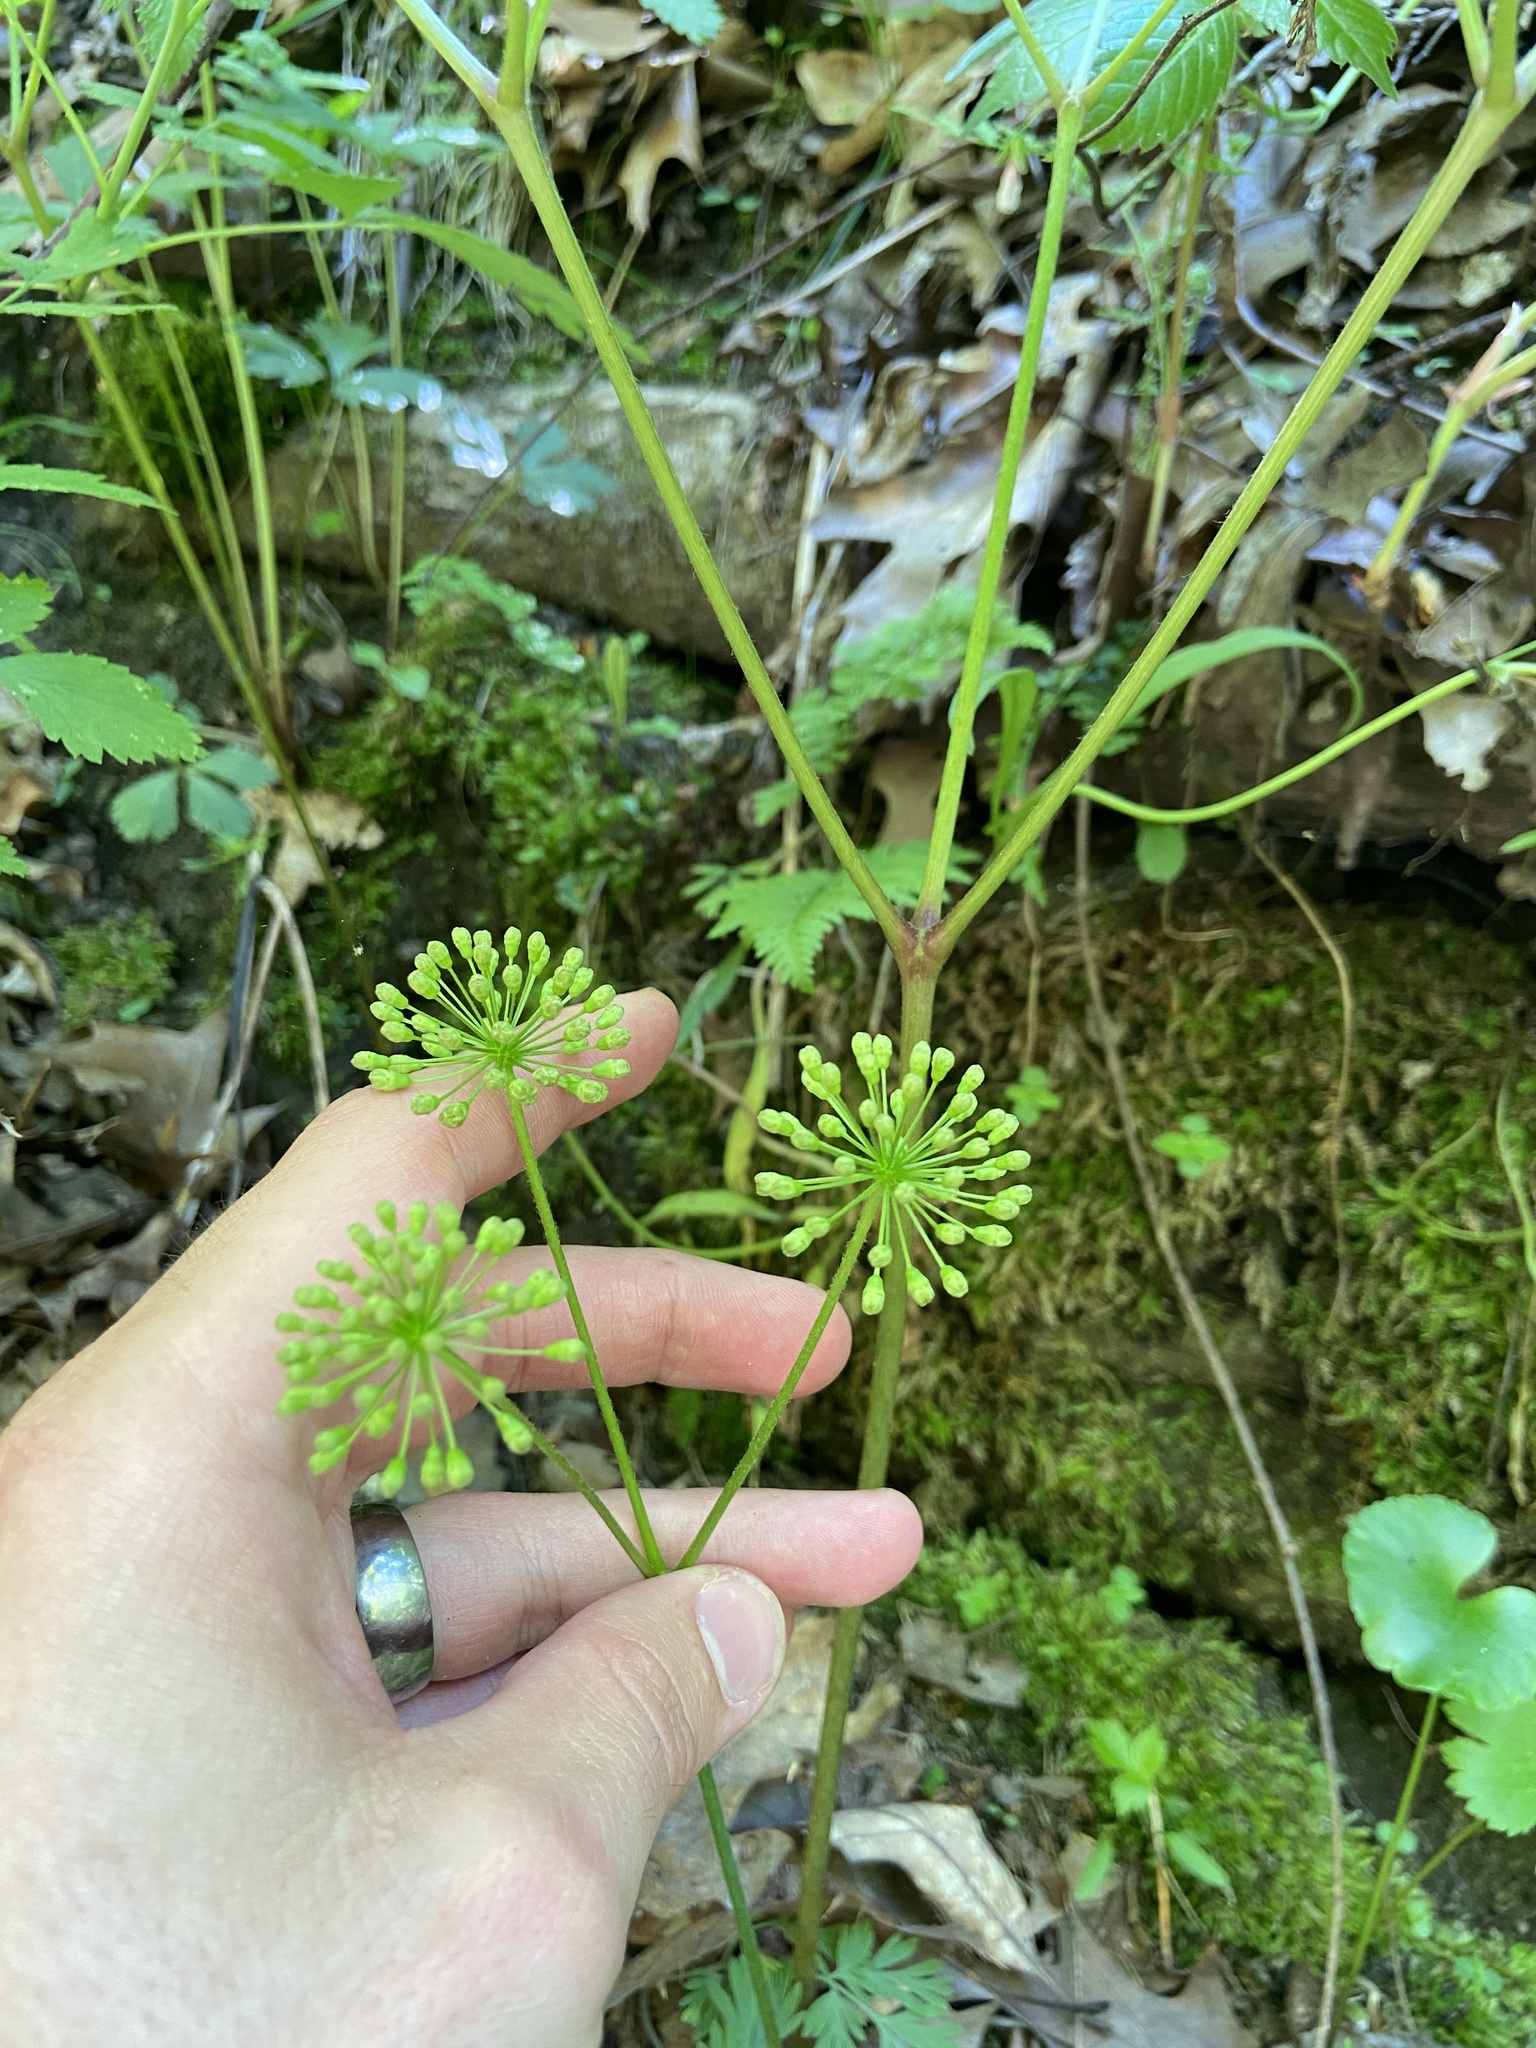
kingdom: Plantae
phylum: Tracheophyta
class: Magnoliopsida
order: Apiales
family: Araliaceae
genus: Aralia
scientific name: Aralia nudicaulis
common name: Wild sarsaparilla
